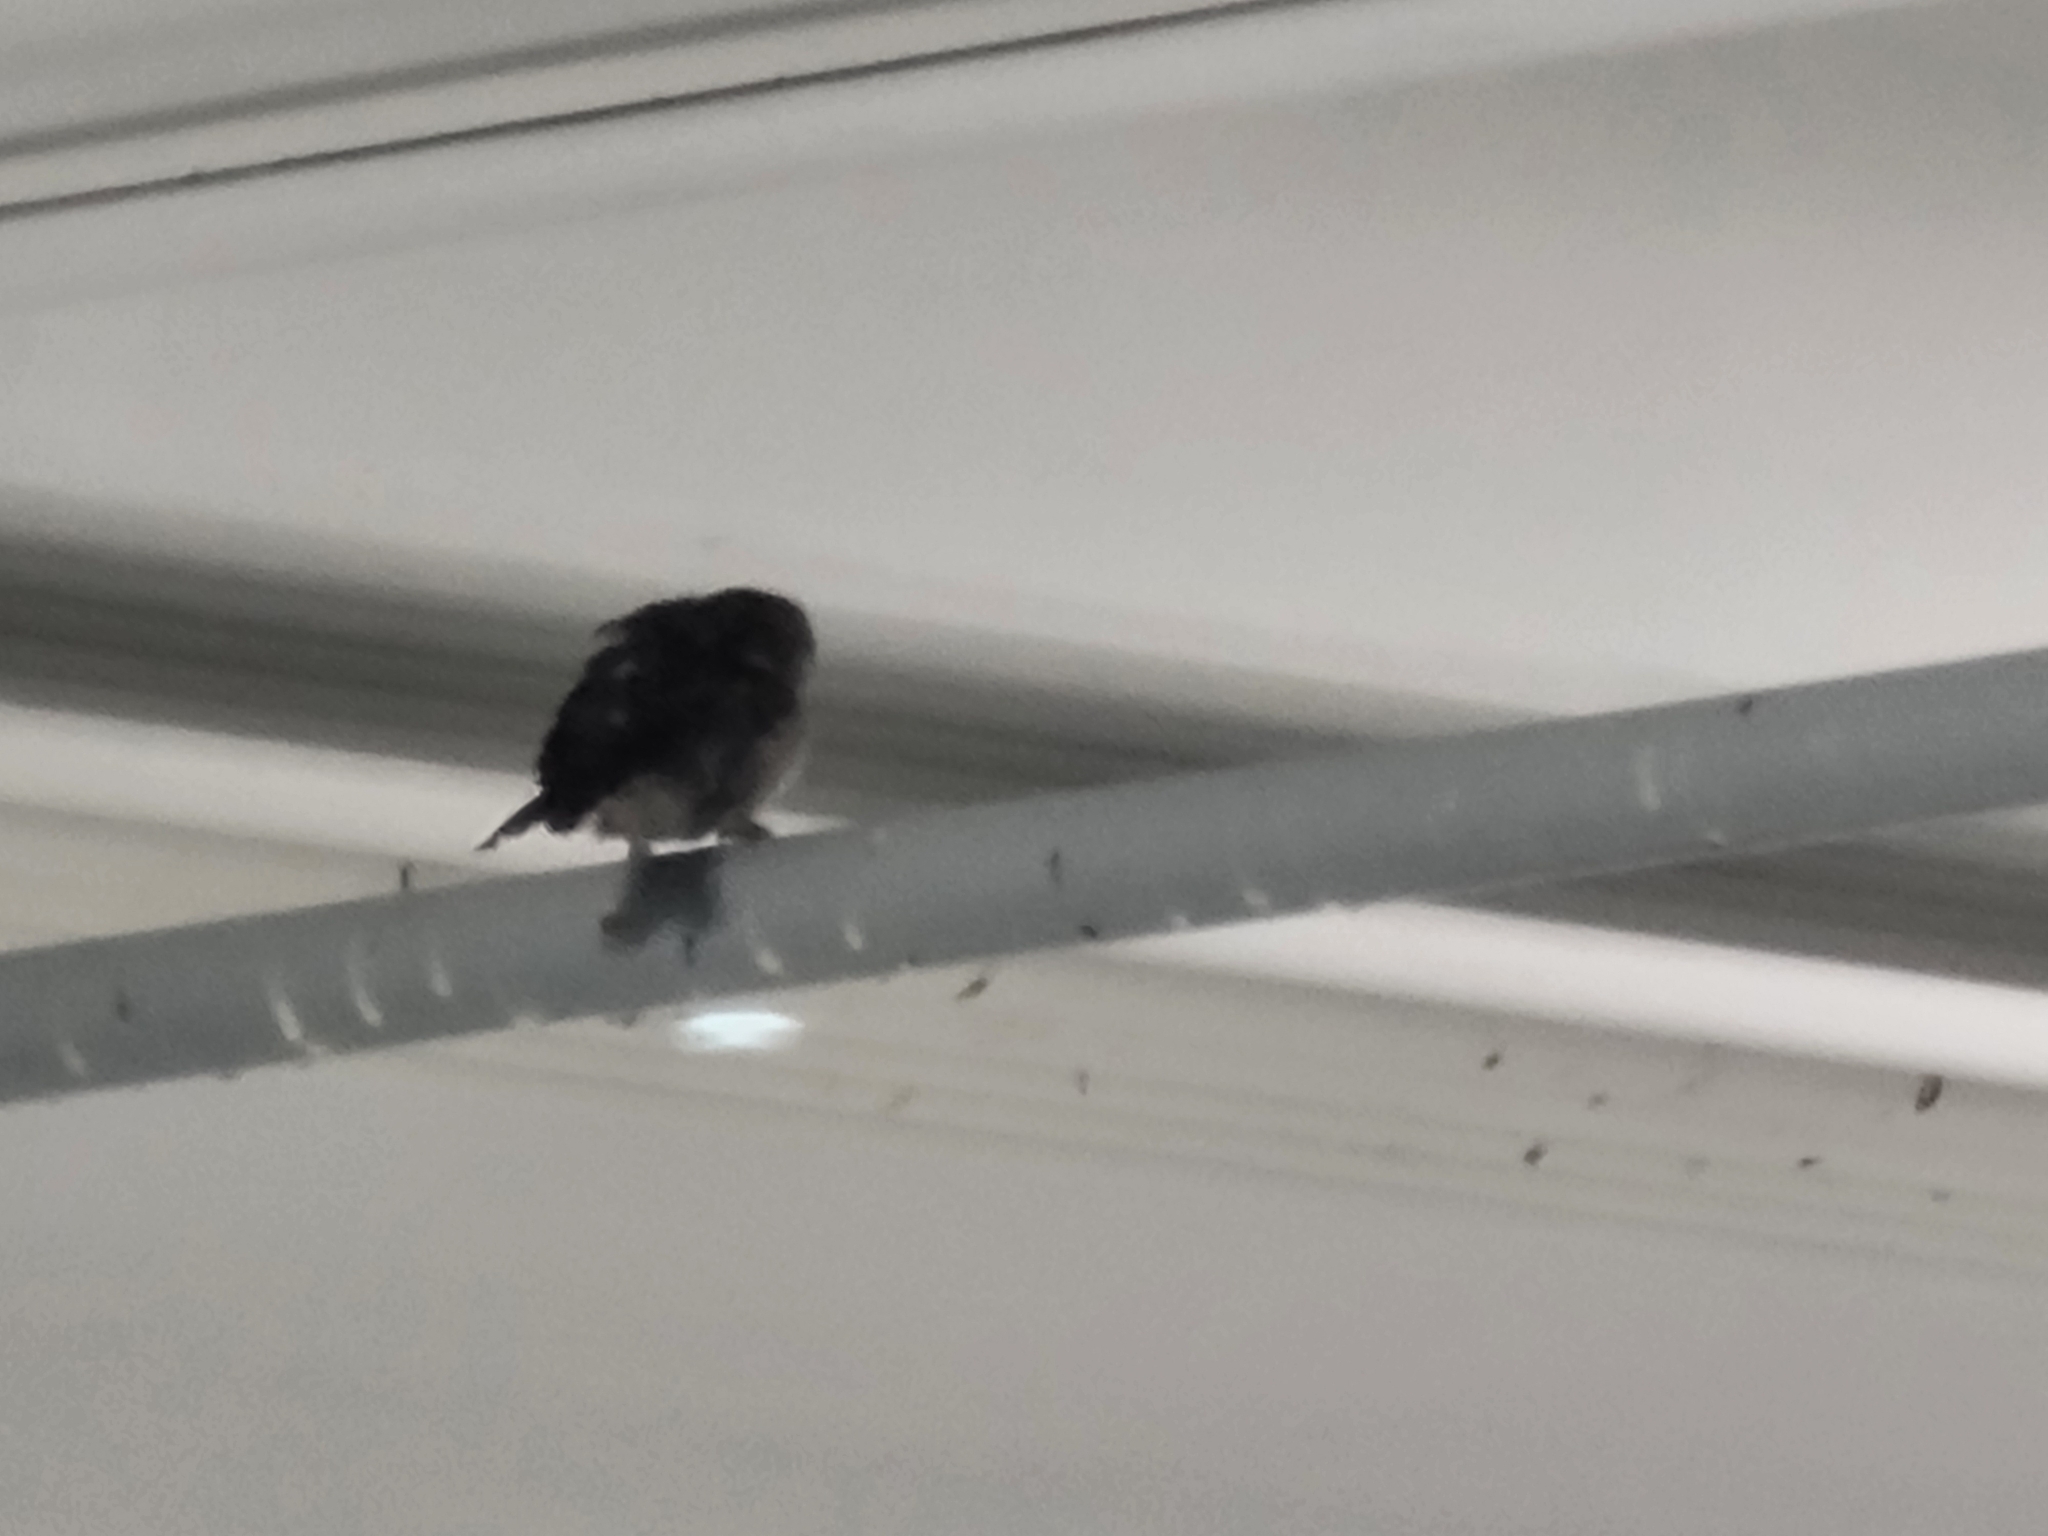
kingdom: Animalia
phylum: Chordata
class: Aves
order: Passeriformes
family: Passeridae
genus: Passer
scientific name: Passer domesticus
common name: House sparrow
